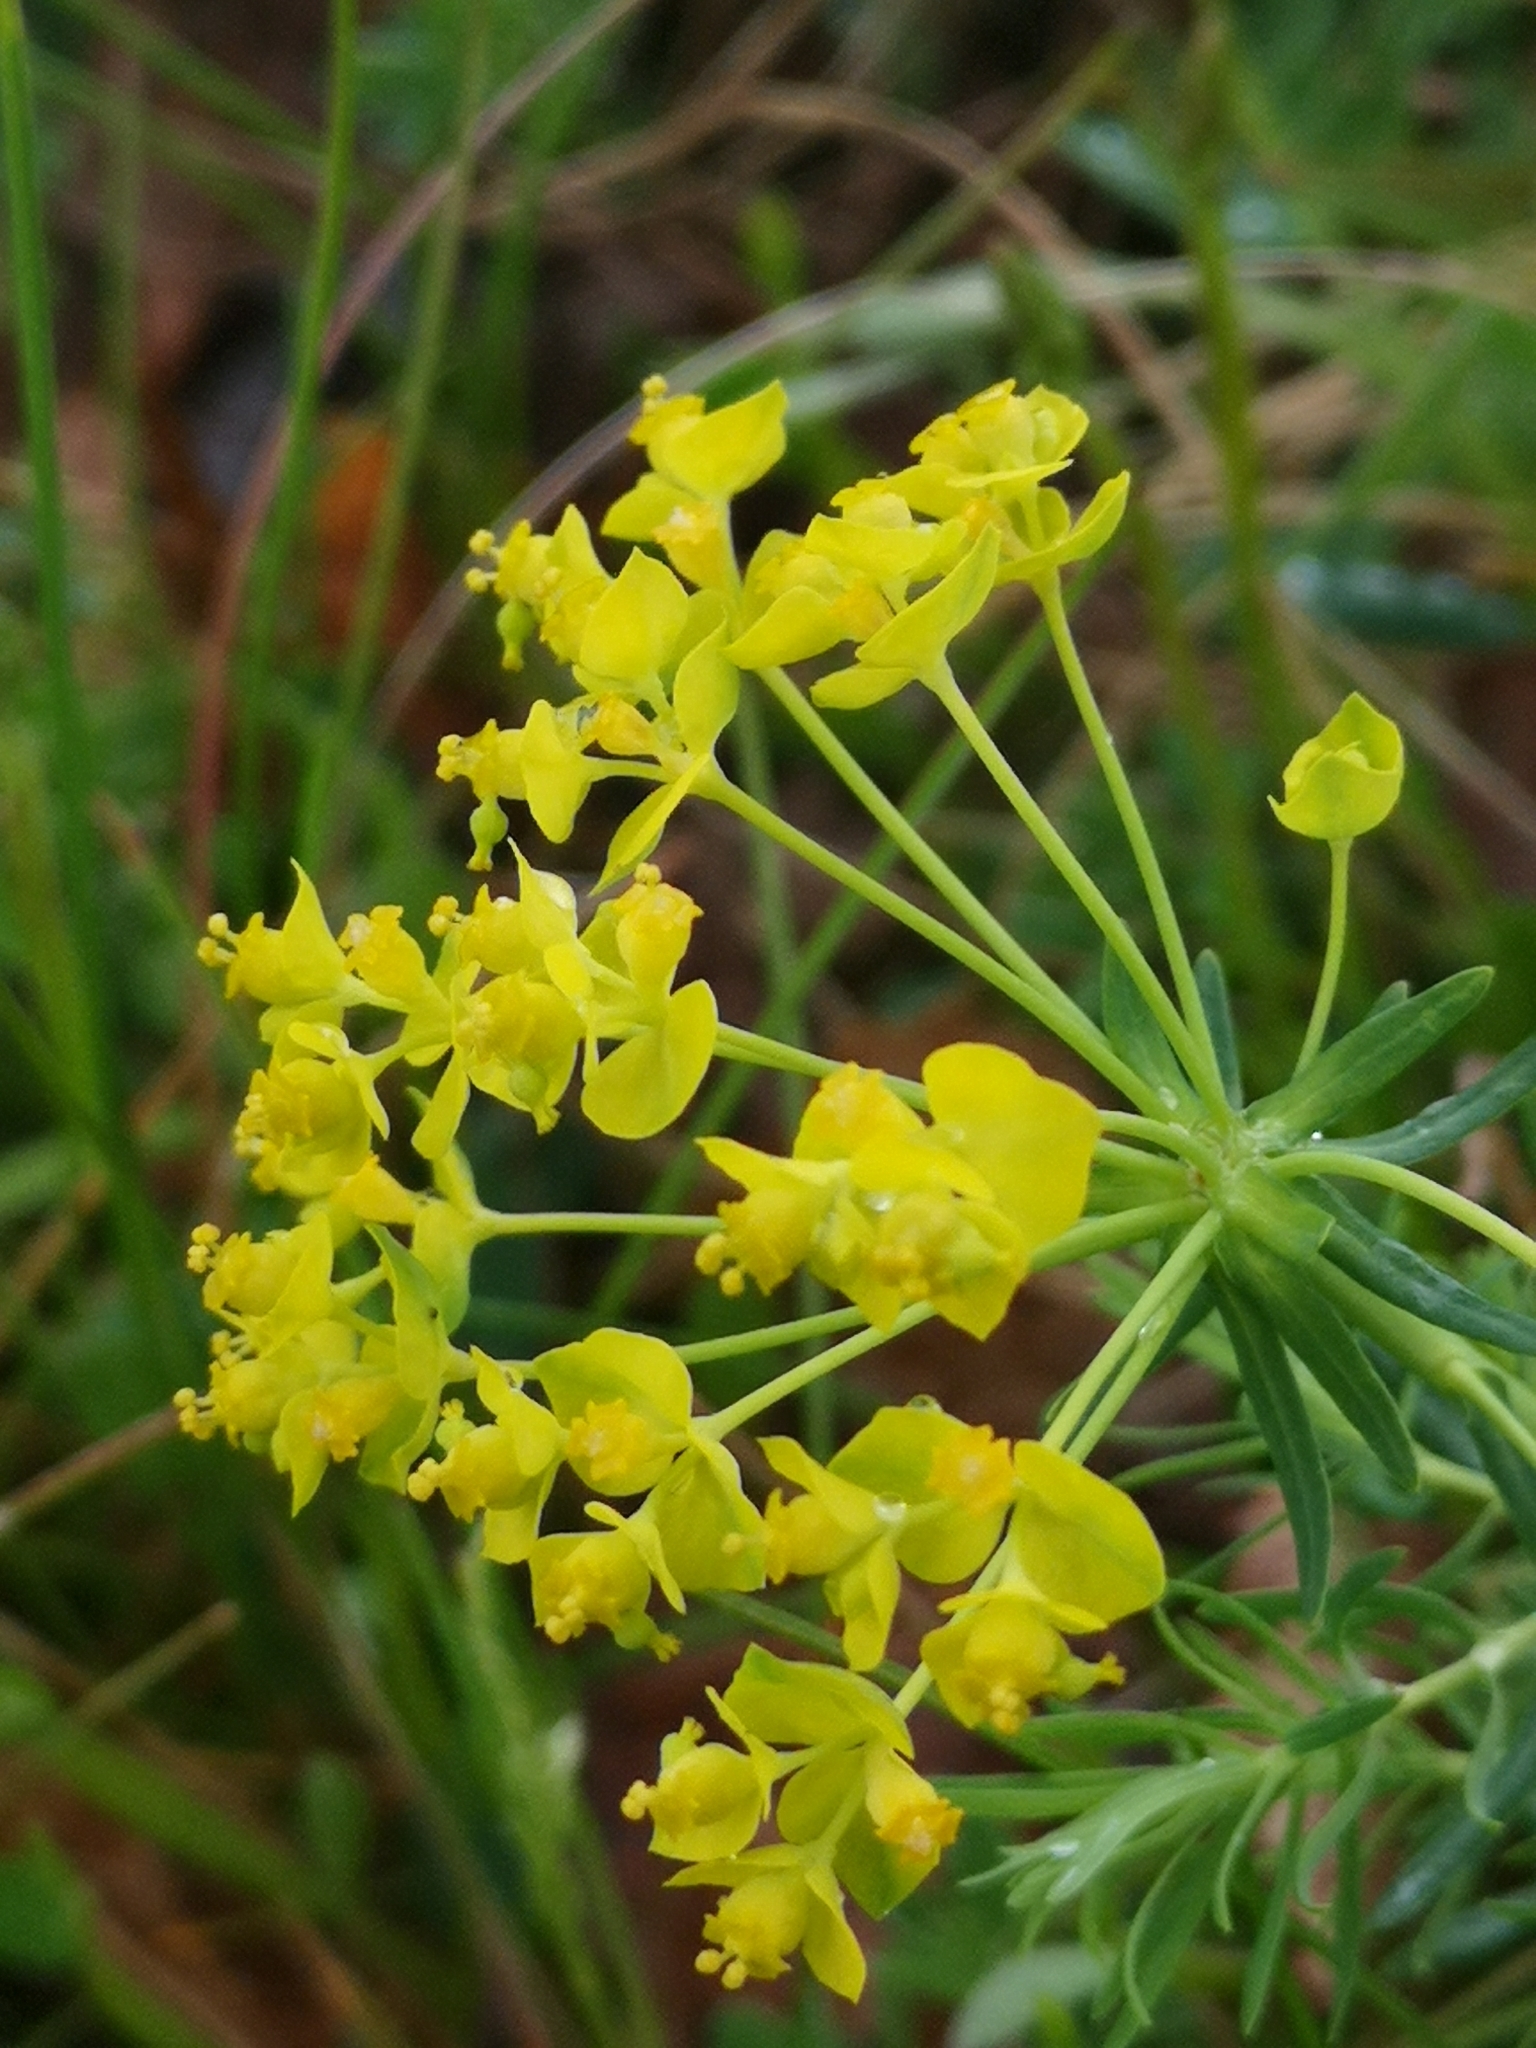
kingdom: Plantae
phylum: Tracheophyta
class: Magnoliopsida
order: Malpighiales
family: Euphorbiaceae
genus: Euphorbia
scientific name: Euphorbia cyparissias
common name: Cypress spurge
